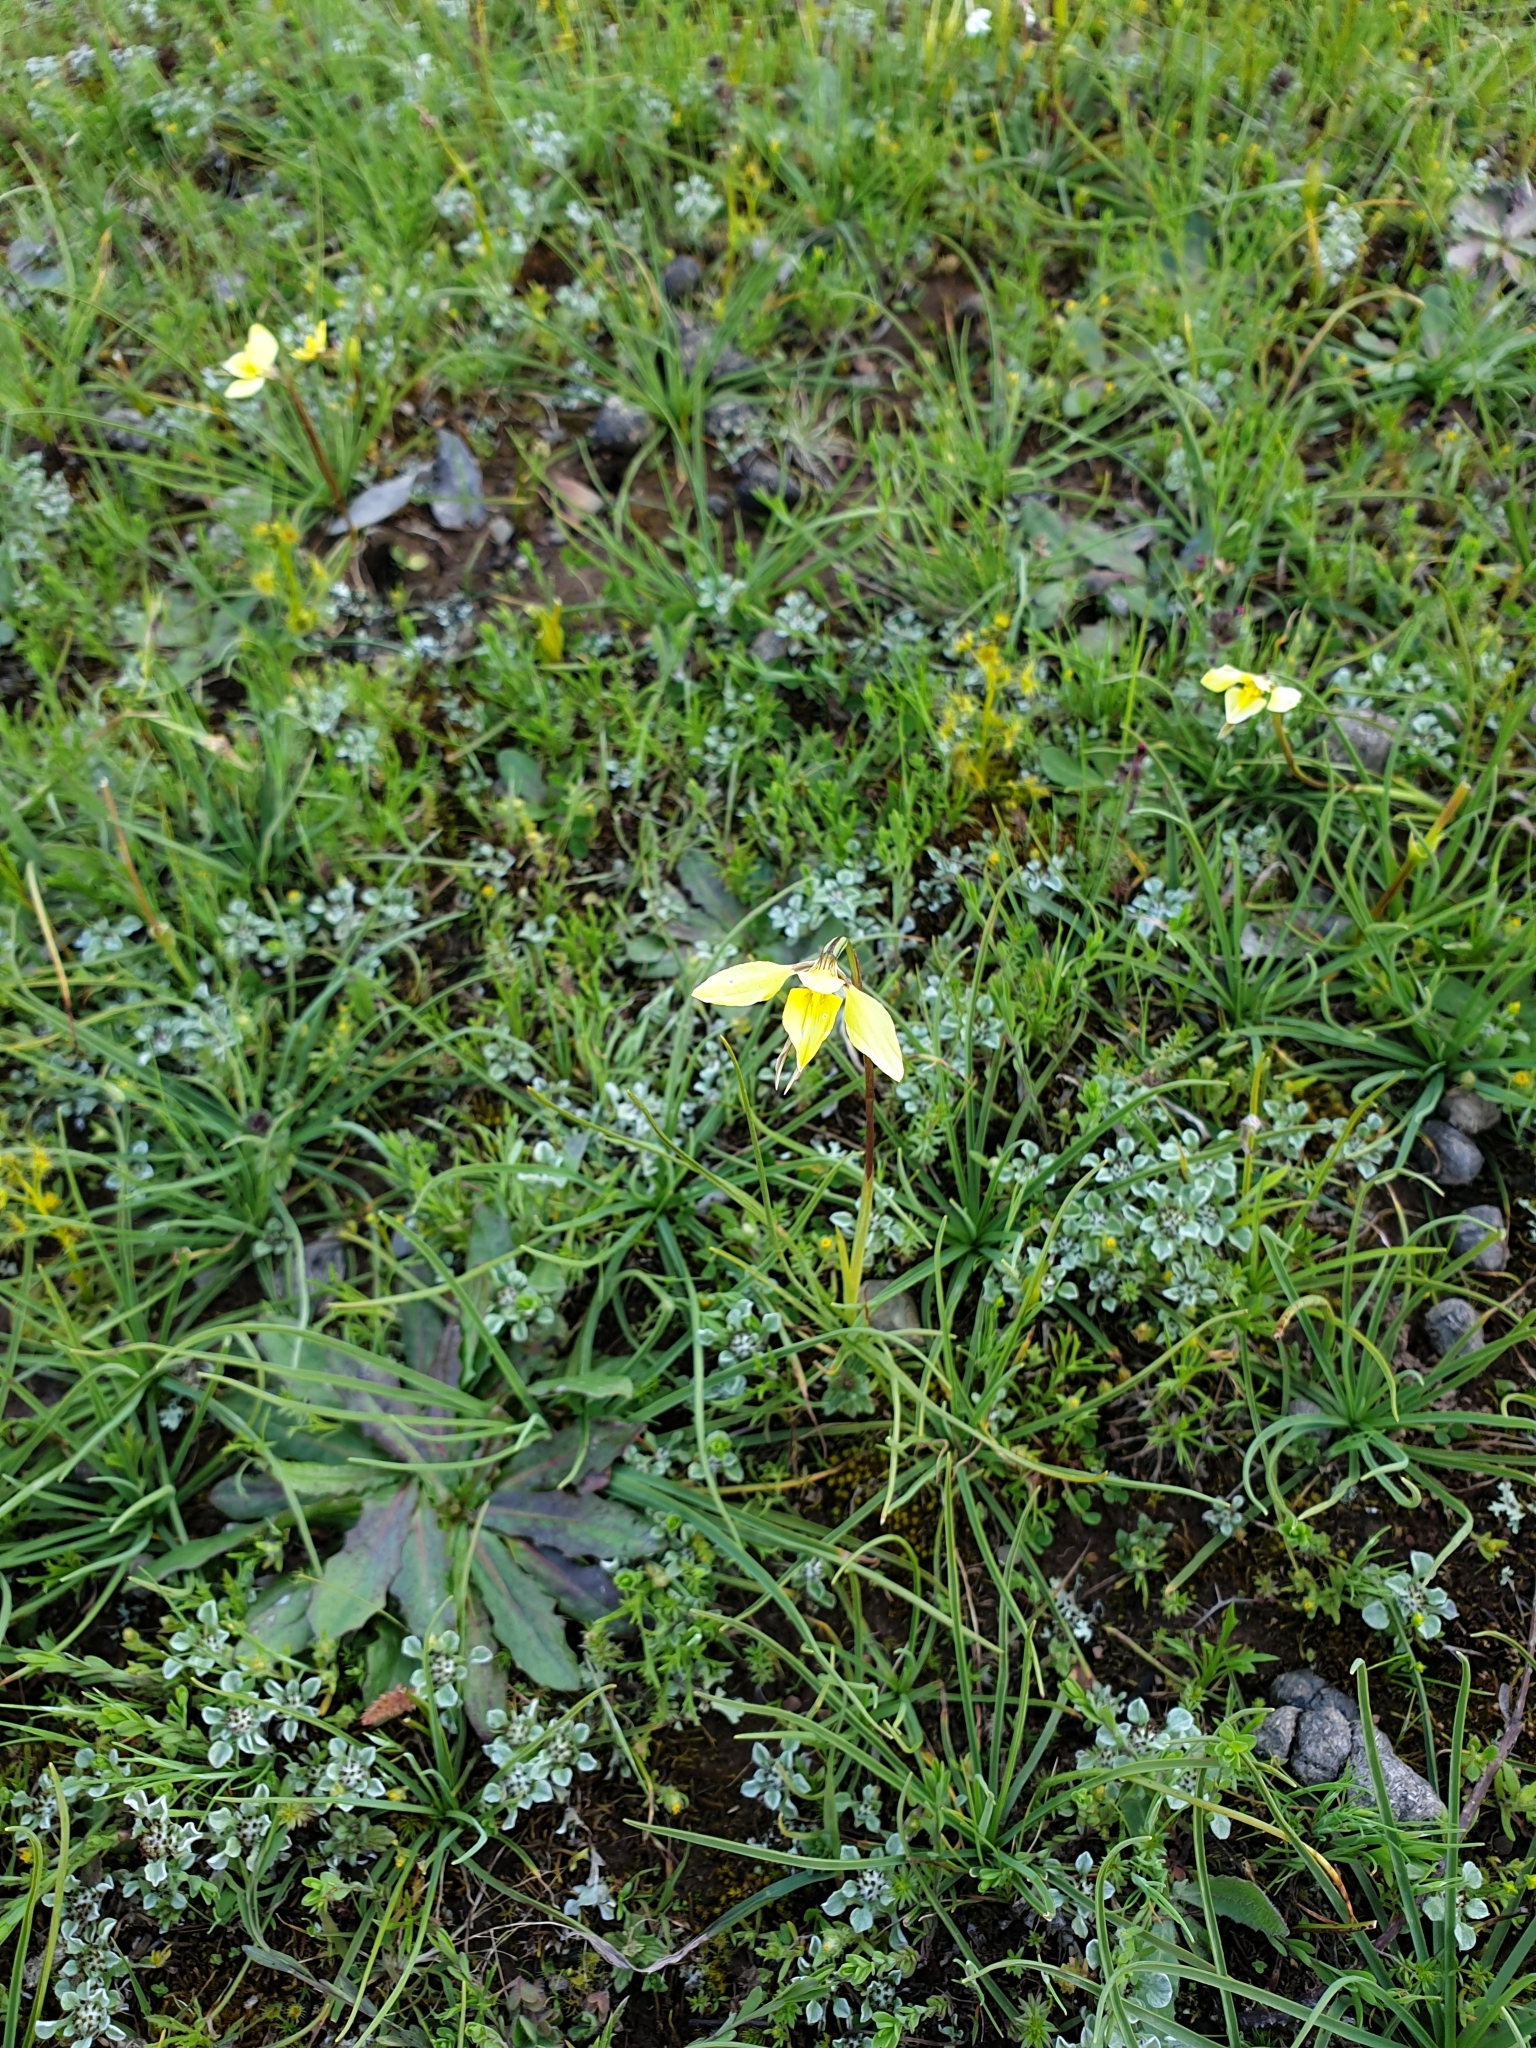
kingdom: Plantae
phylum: Tracheophyta
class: Liliopsida
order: Asparagales
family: Orchidaceae
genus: Diuris
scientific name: Diuris chryseopsis
